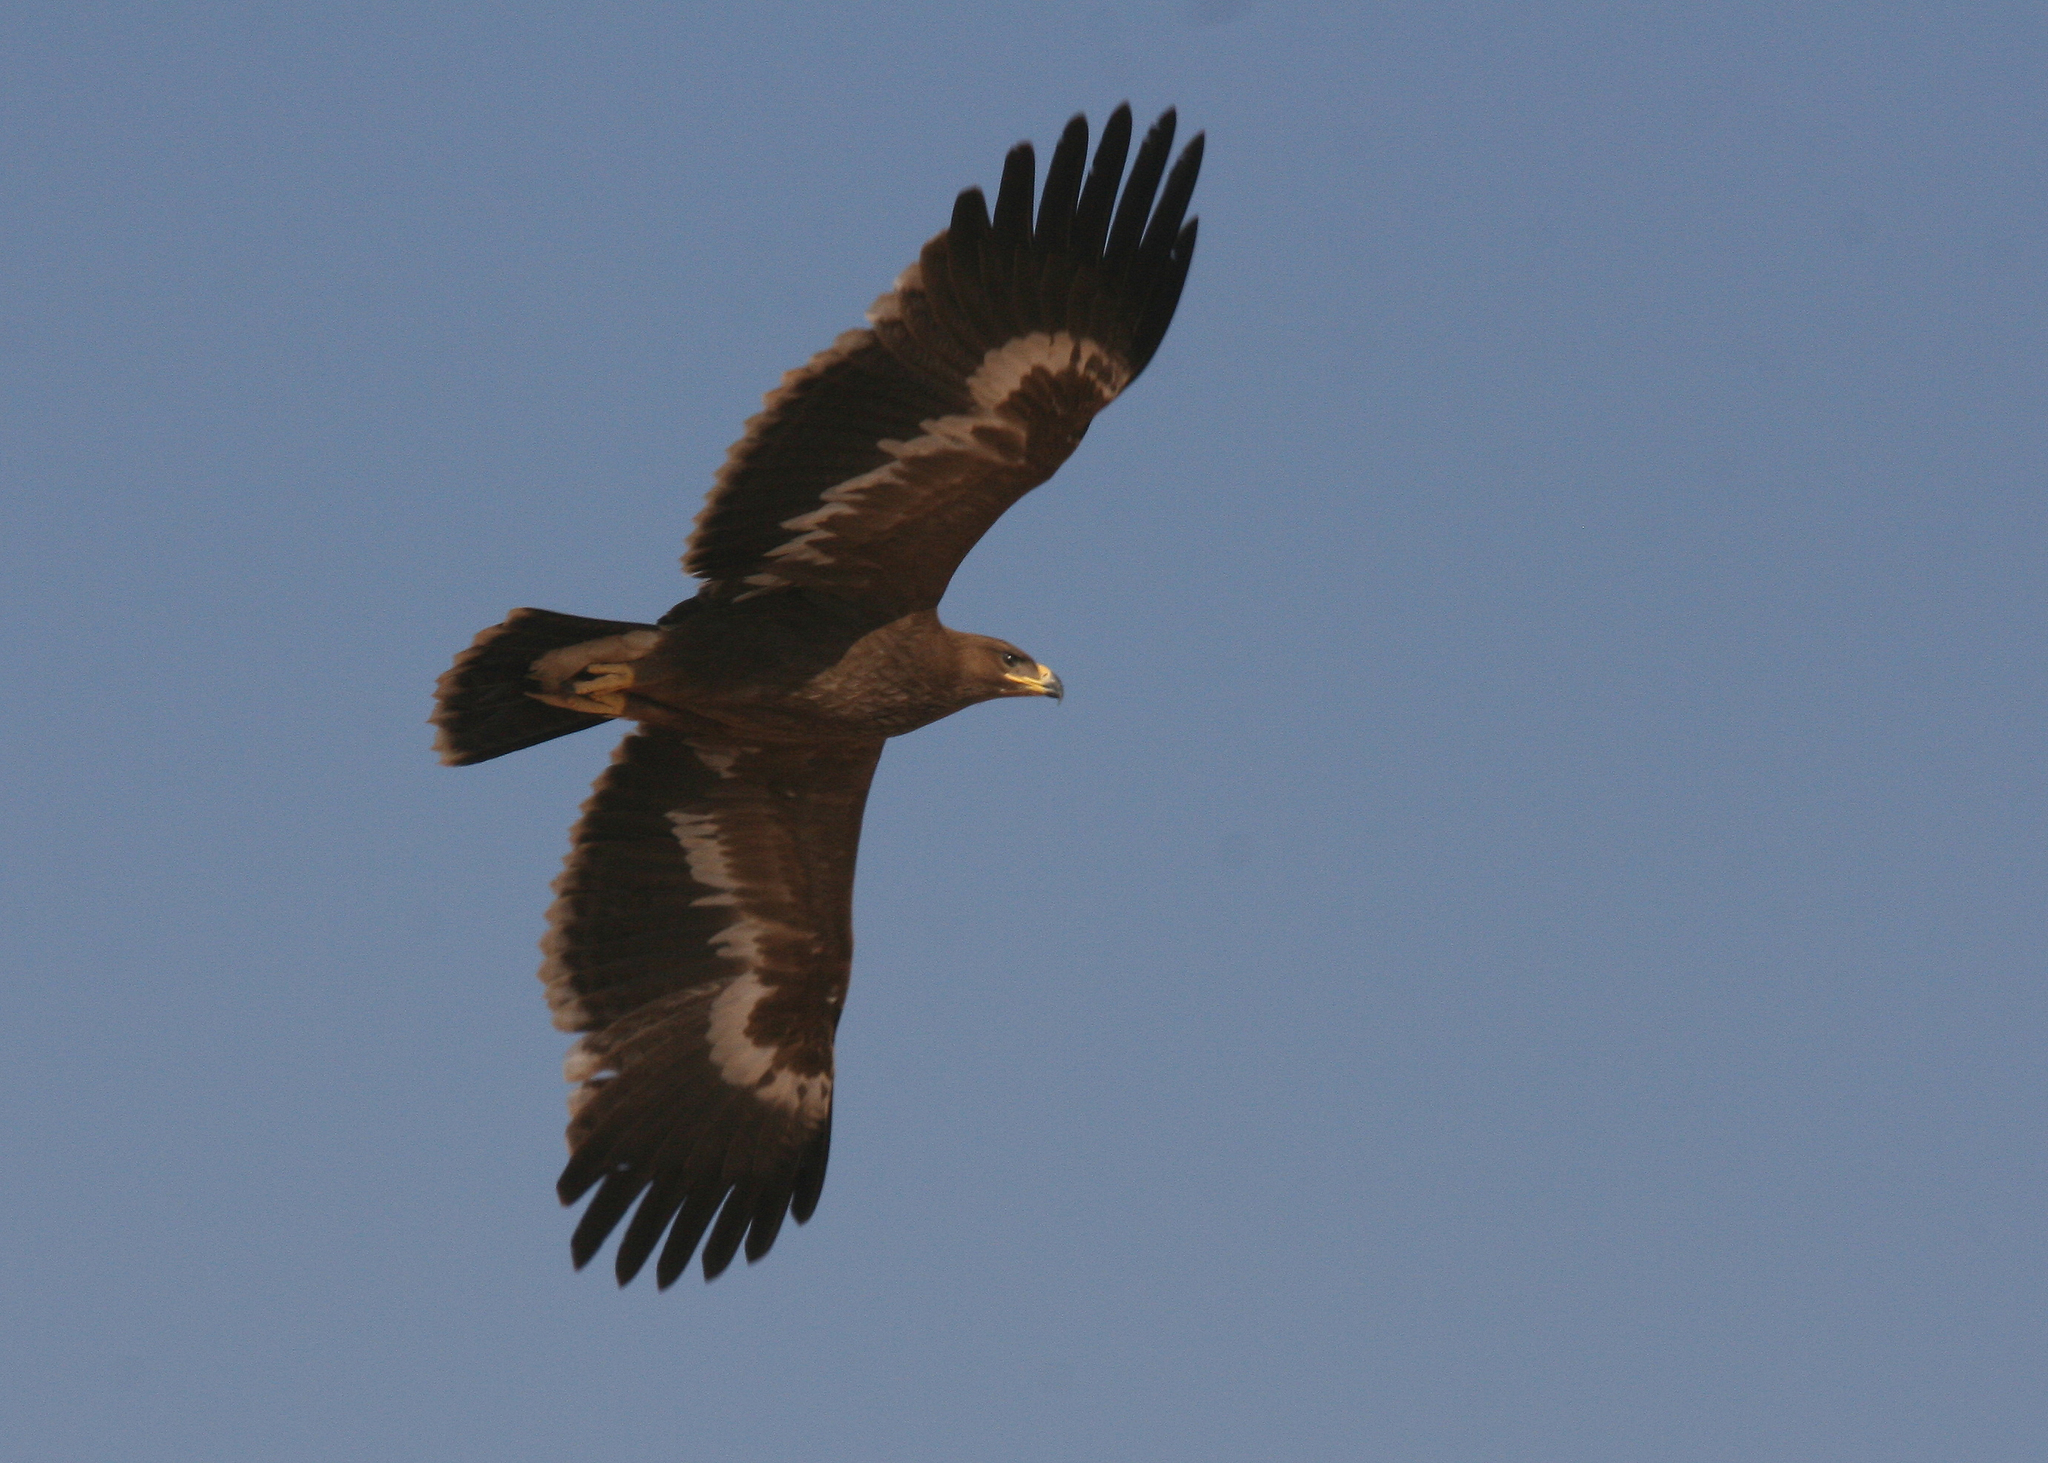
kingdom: Animalia
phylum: Chordata
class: Aves
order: Accipitriformes
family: Accipitridae
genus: Aquila
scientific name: Aquila nipalensis
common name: Steppe eagle
